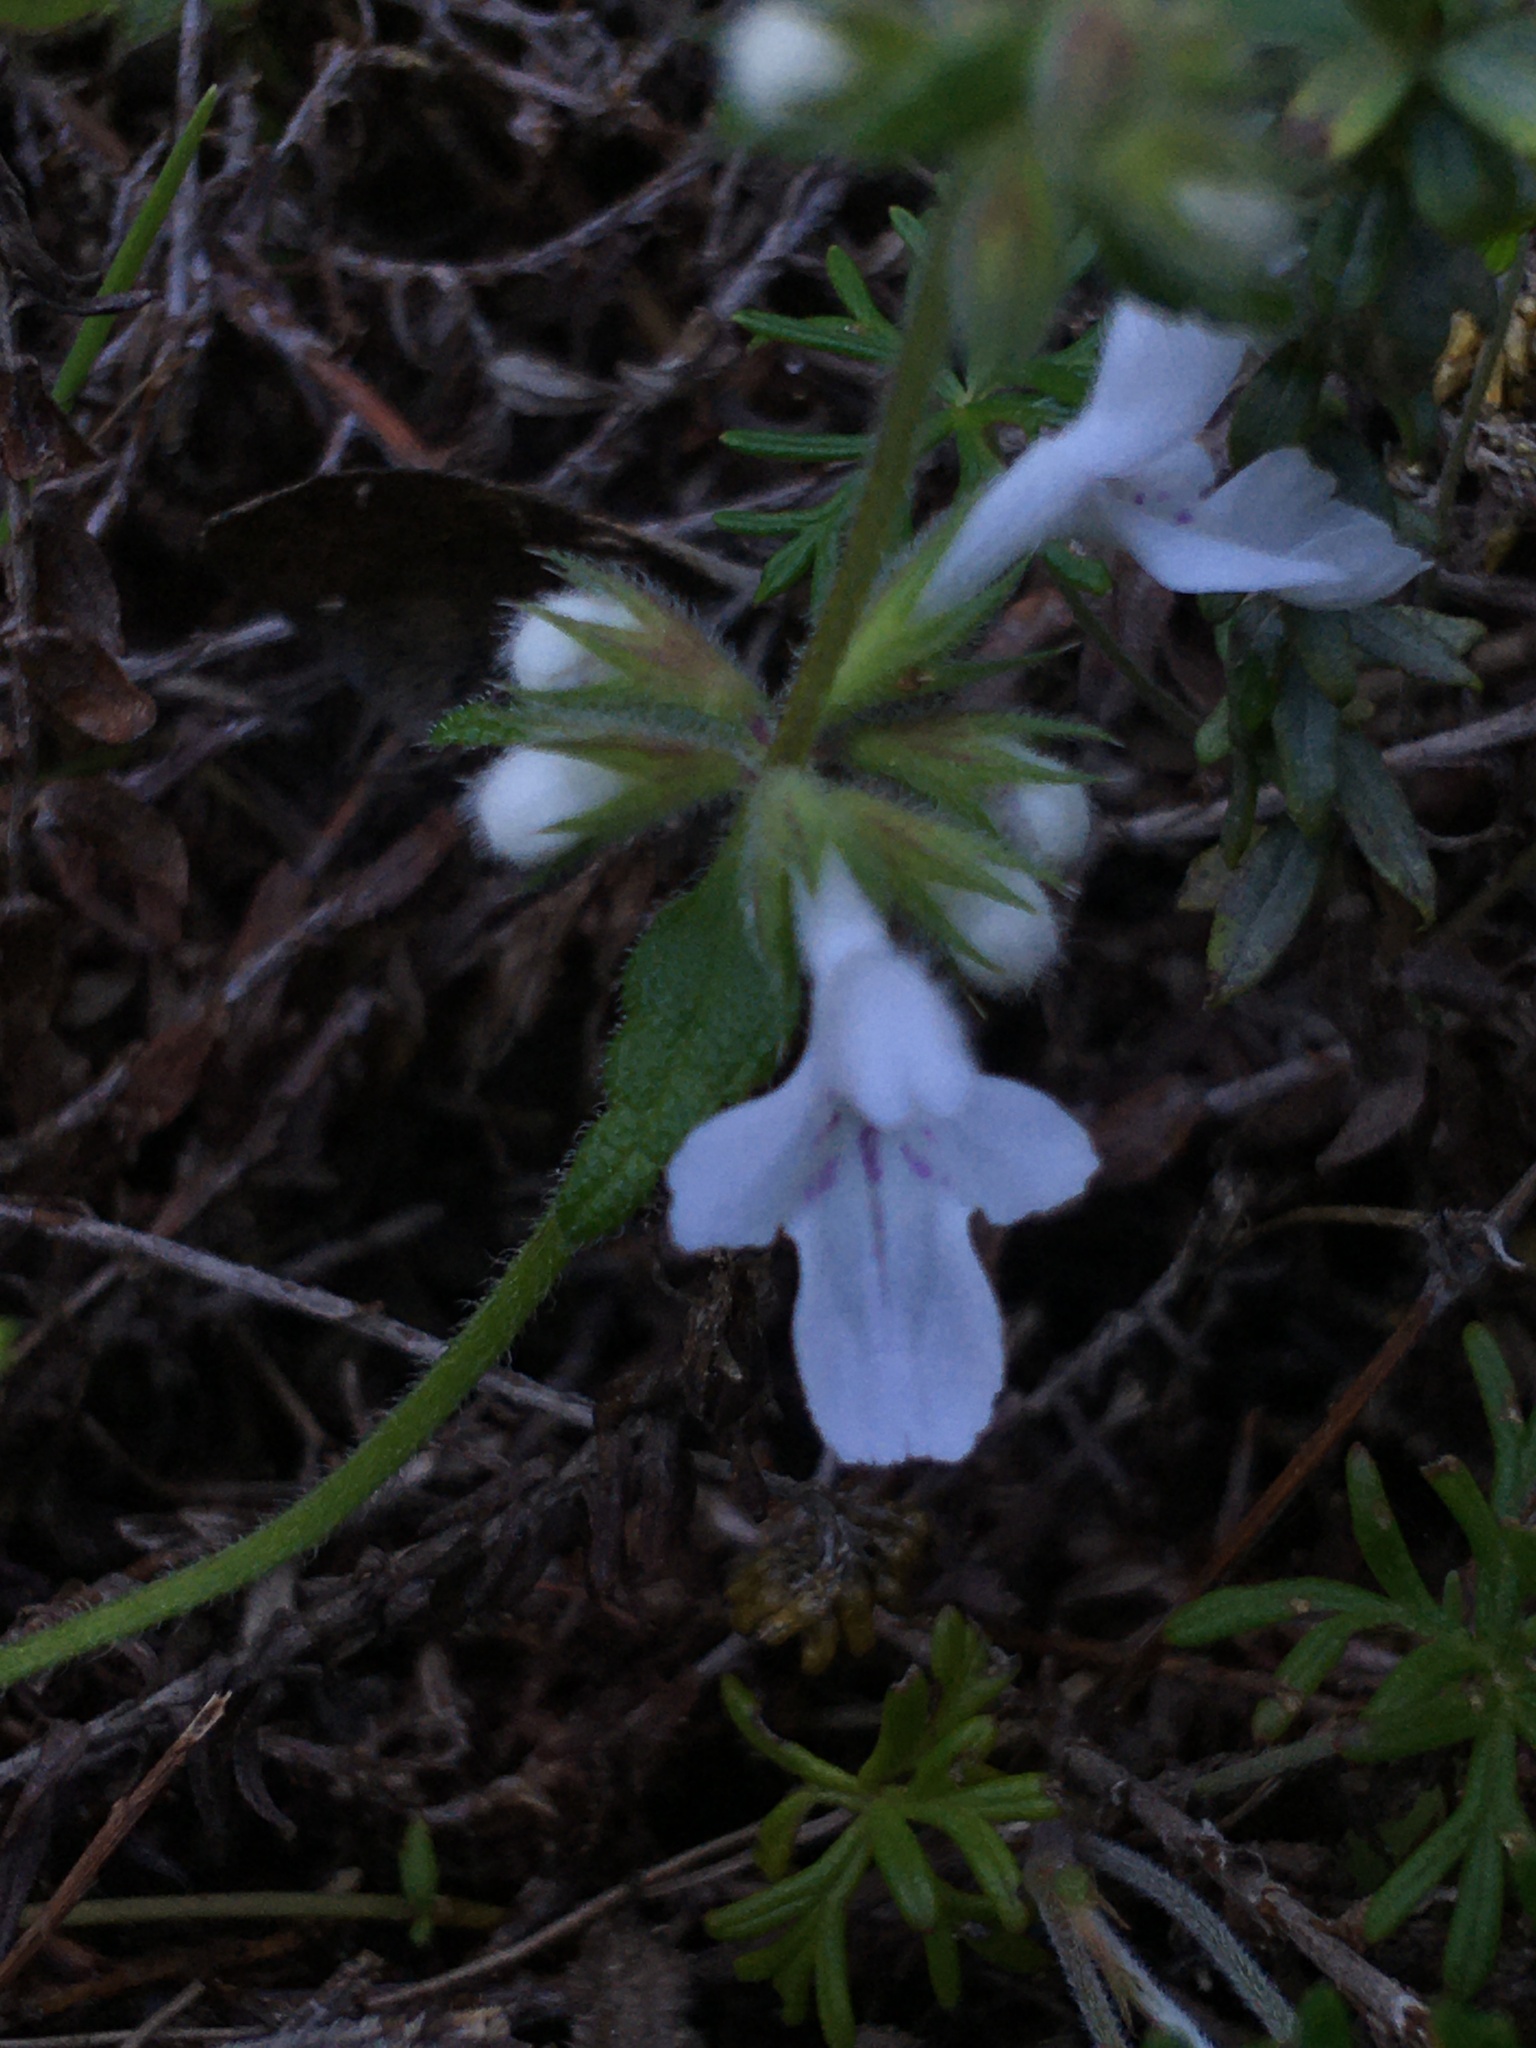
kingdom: Plantae
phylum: Tracheophyta
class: Magnoliopsida
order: Lamiales
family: Lamiaceae
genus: Stachys
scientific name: Stachys aethiopica
